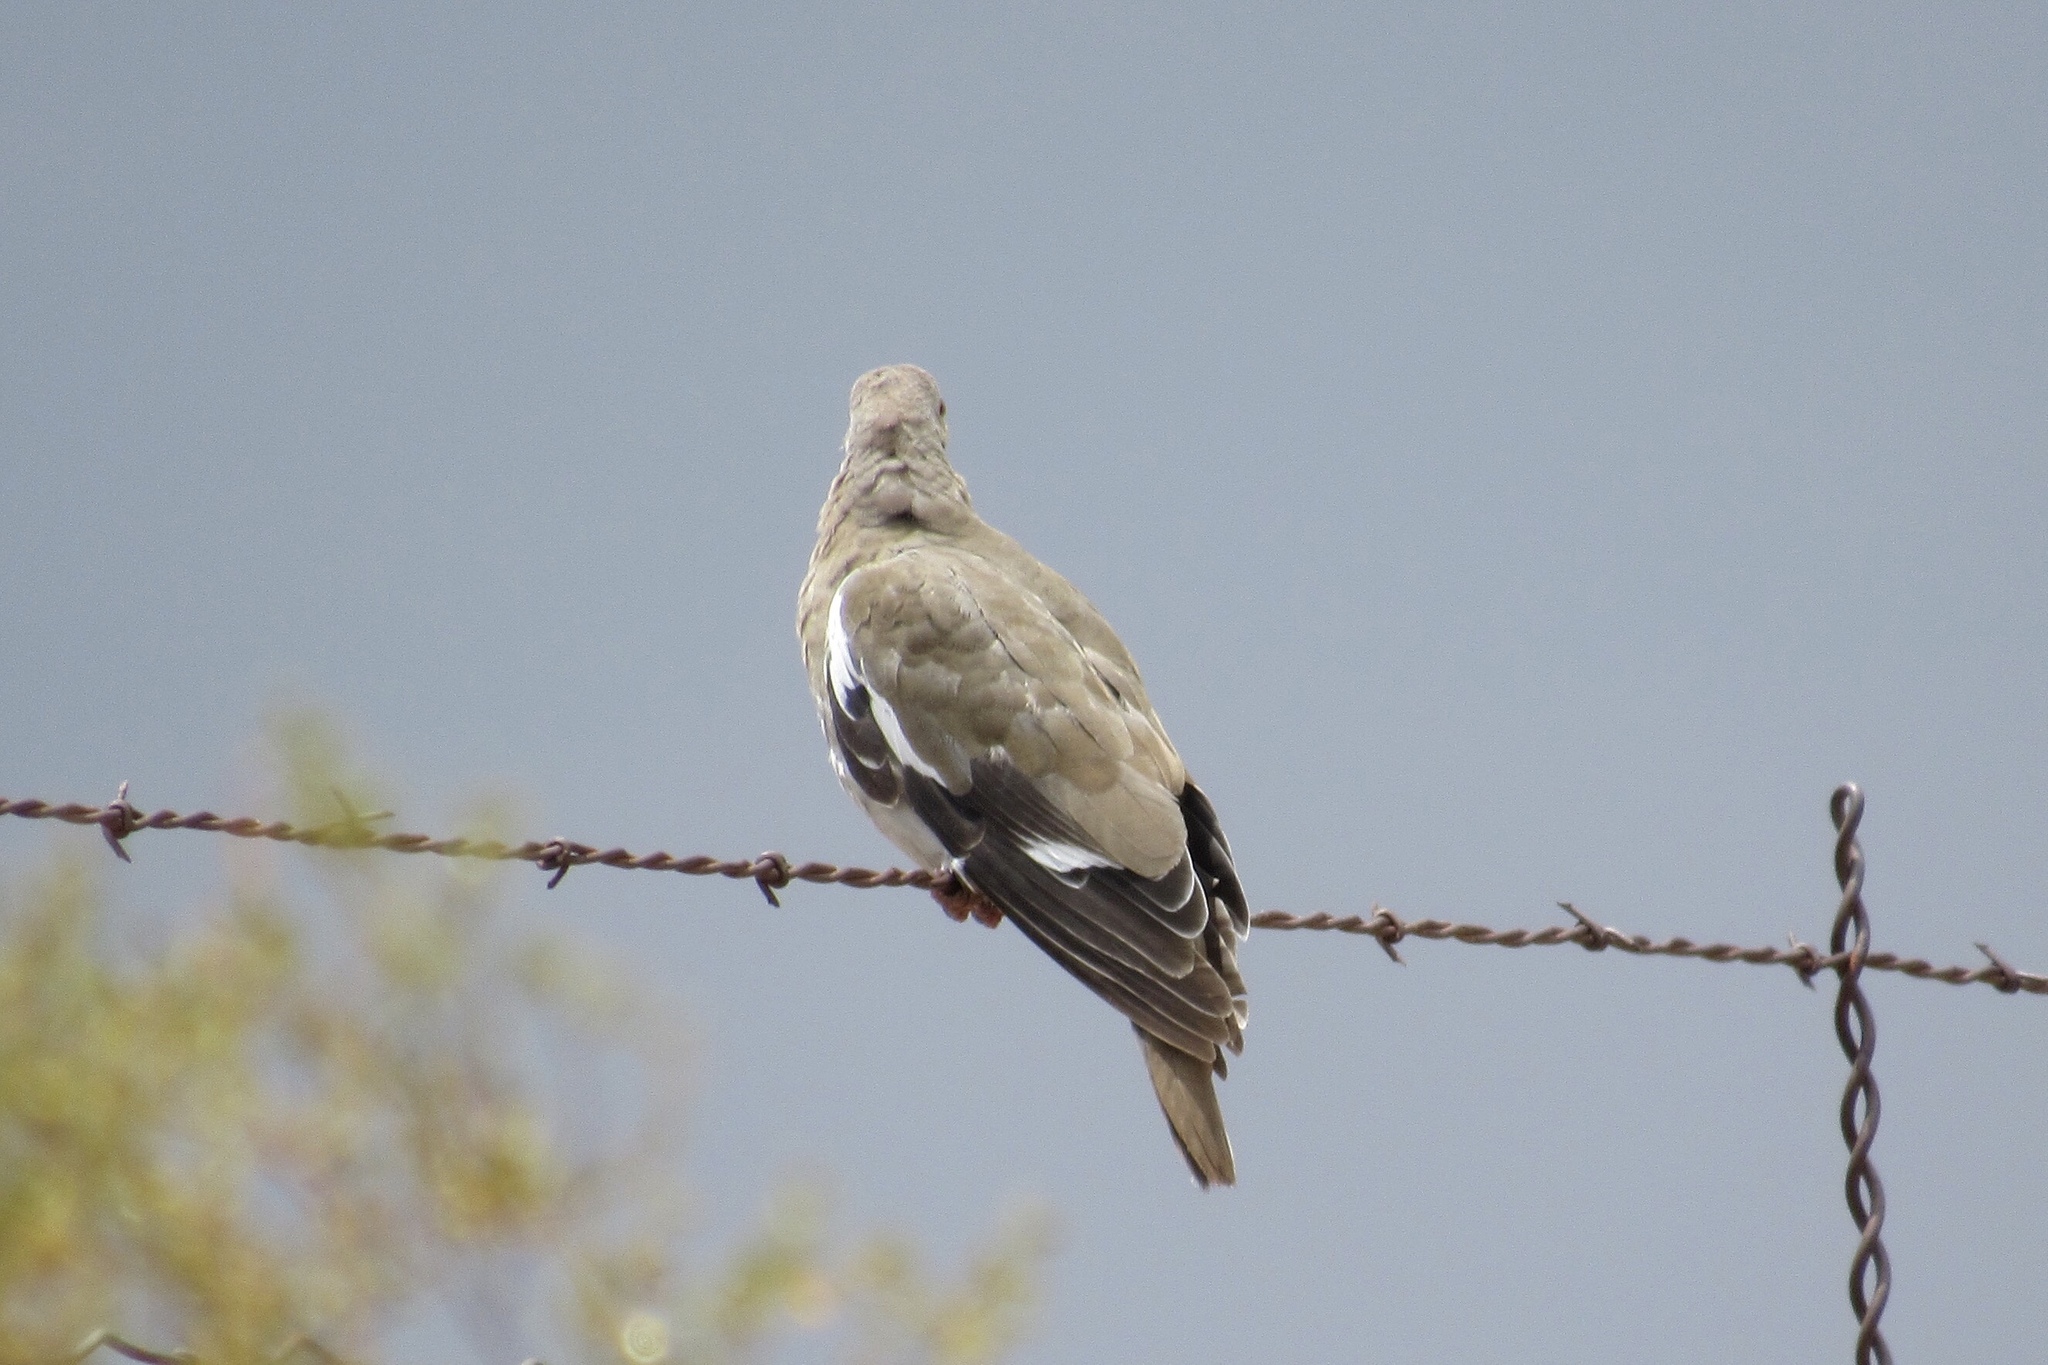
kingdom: Animalia
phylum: Chordata
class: Aves
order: Columbiformes
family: Columbidae
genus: Zenaida
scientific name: Zenaida asiatica
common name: White-winged dove
